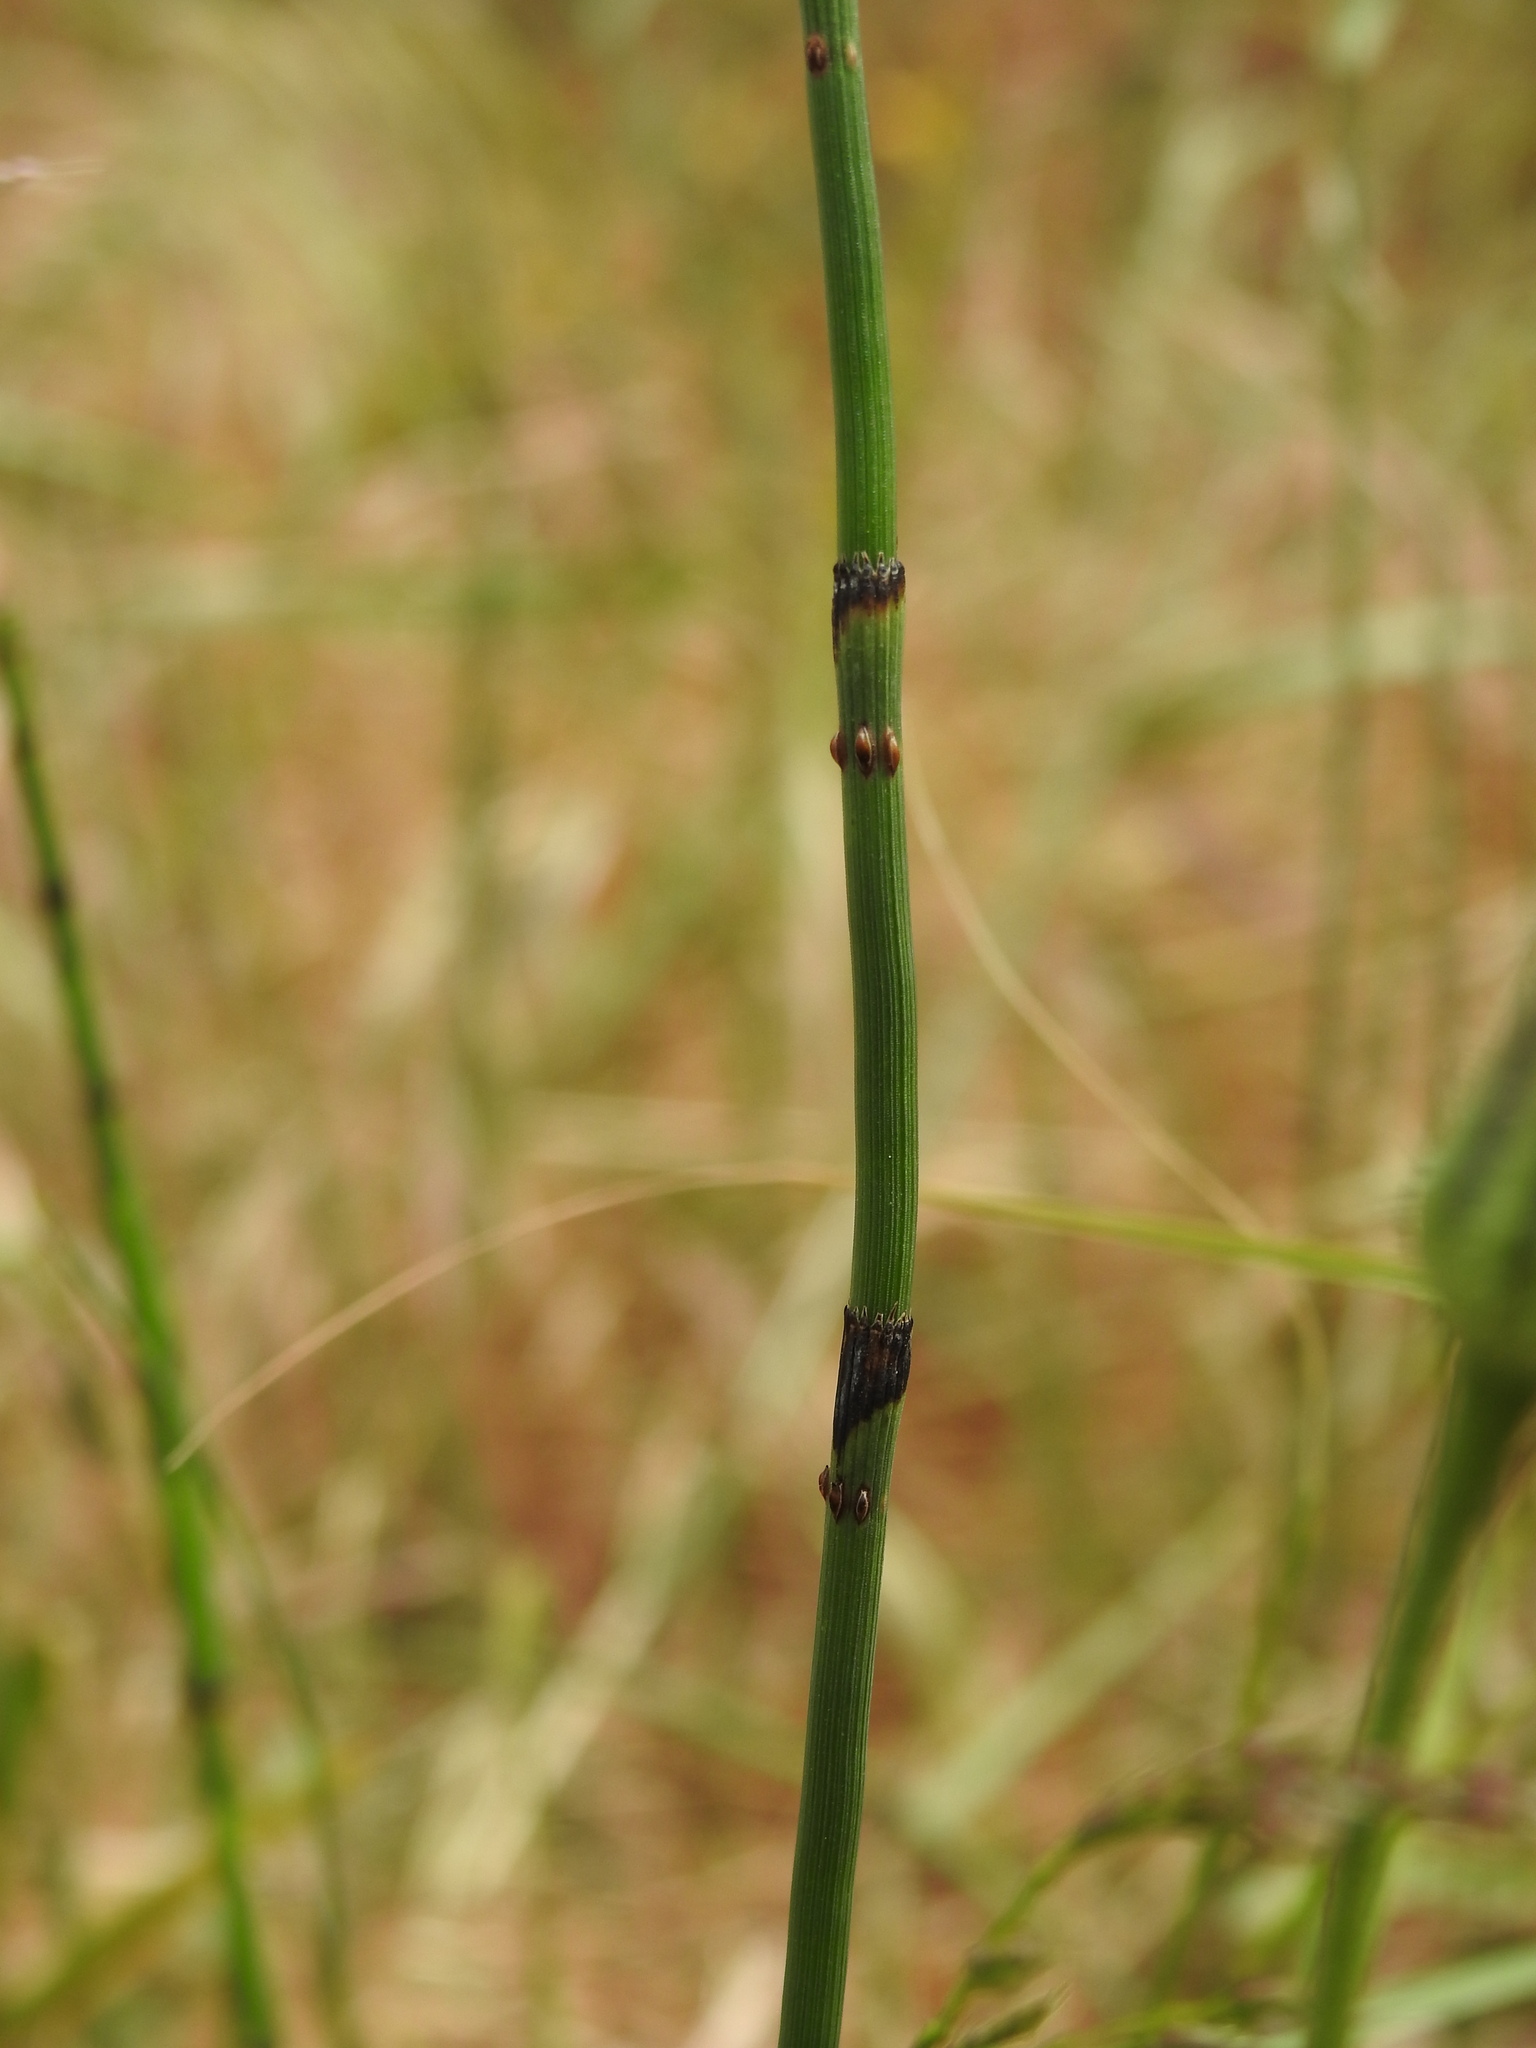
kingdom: Plantae
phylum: Tracheophyta
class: Polypodiopsida
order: Equisetales
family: Equisetaceae
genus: Equisetum
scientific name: Equisetum ramosissimum
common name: Branched horsetail
